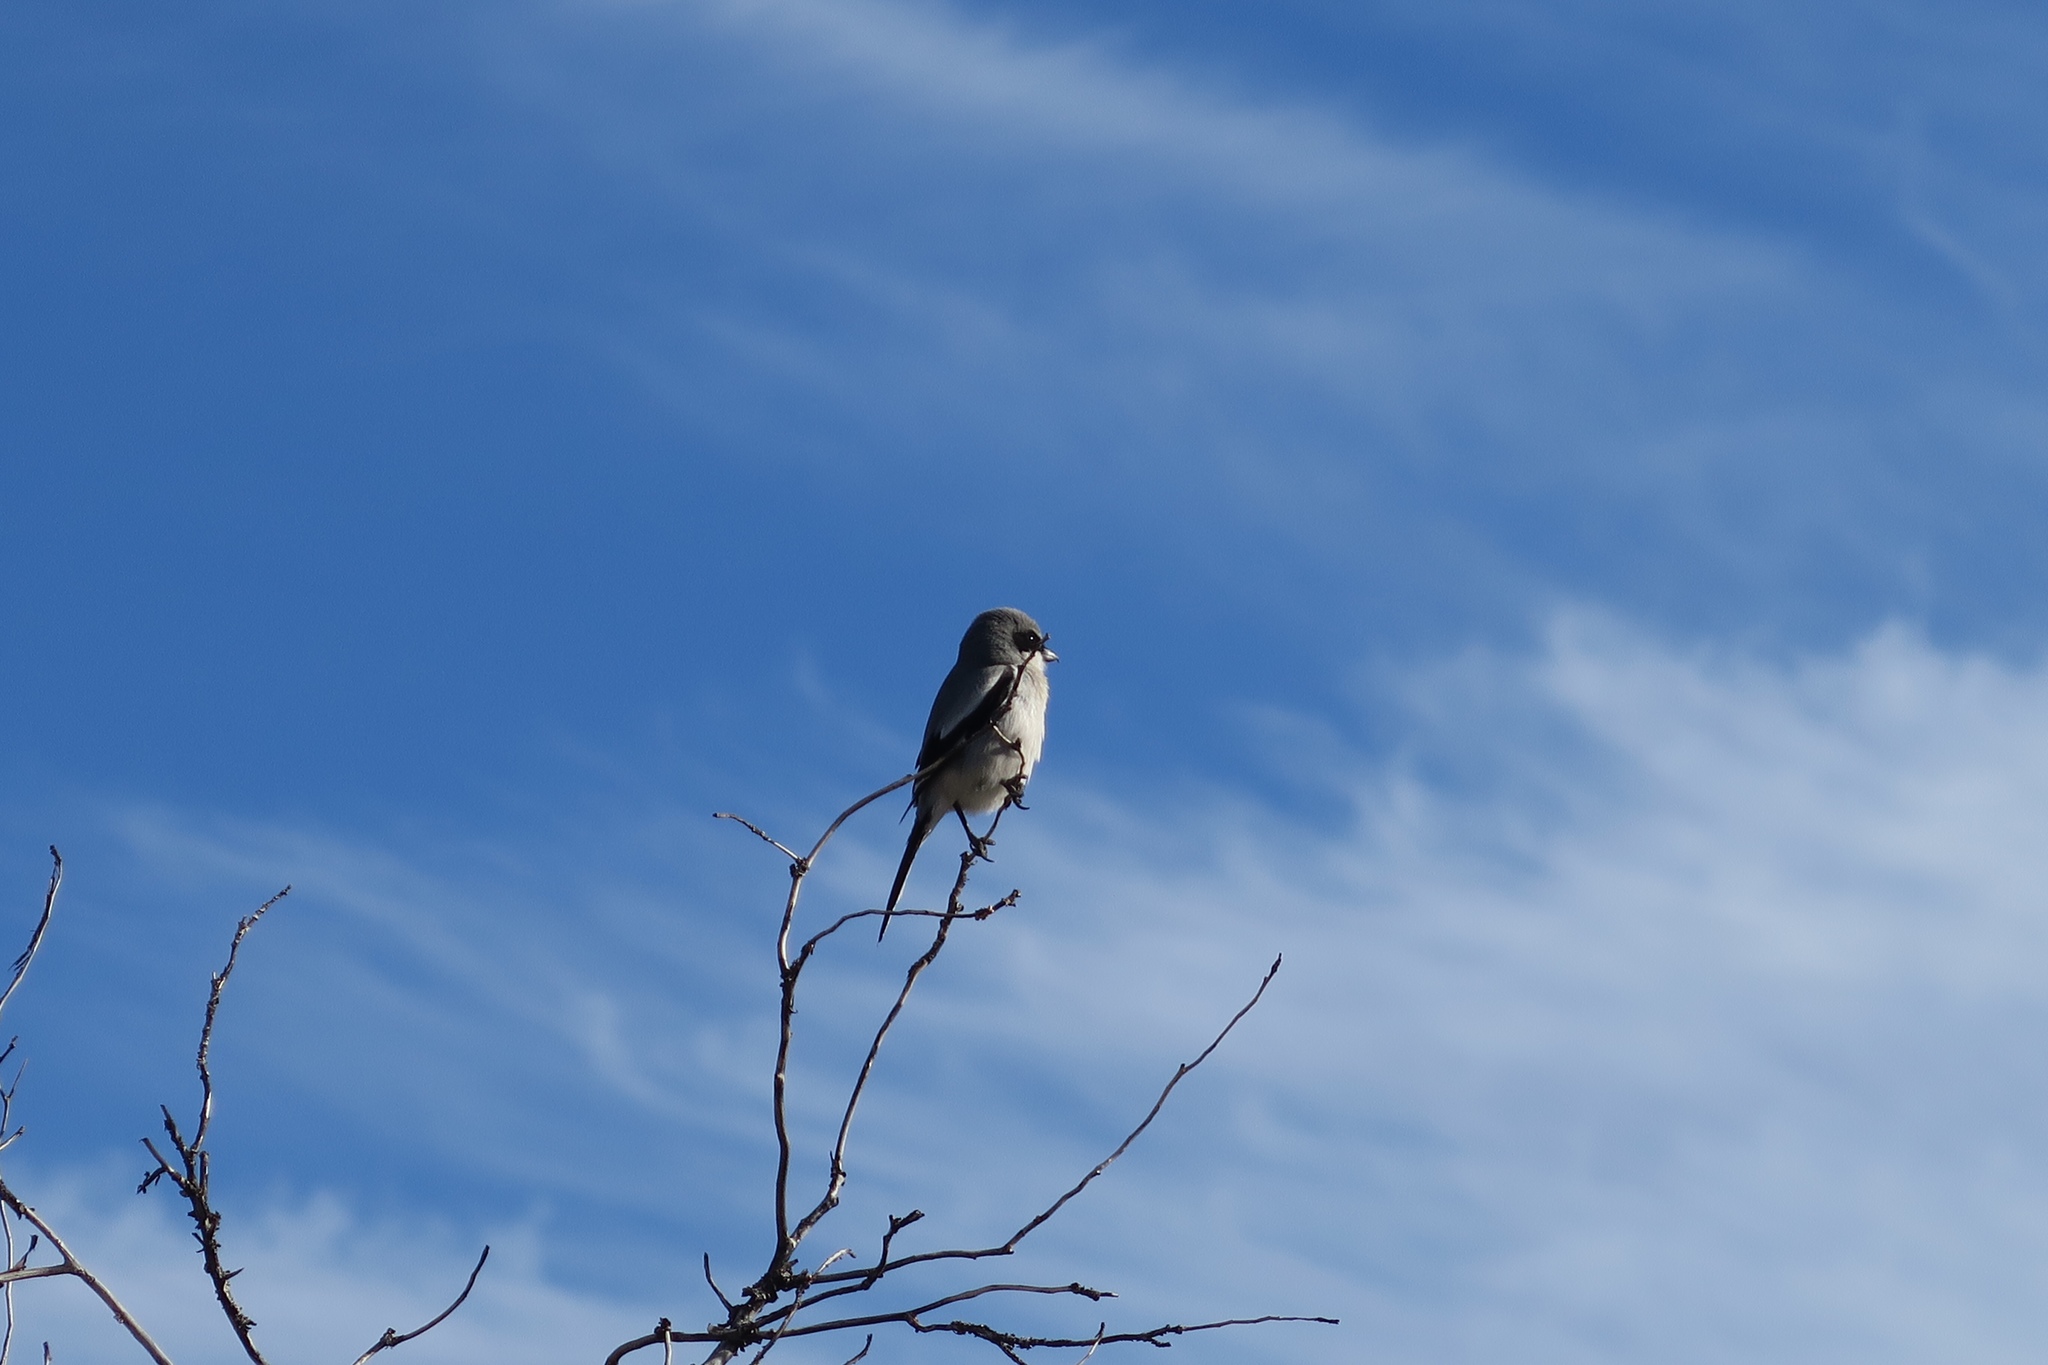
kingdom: Animalia
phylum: Chordata
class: Aves
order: Passeriformes
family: Laniidae
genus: Lanius
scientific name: Lanius ludovicianus
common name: Loggerhead shrike
